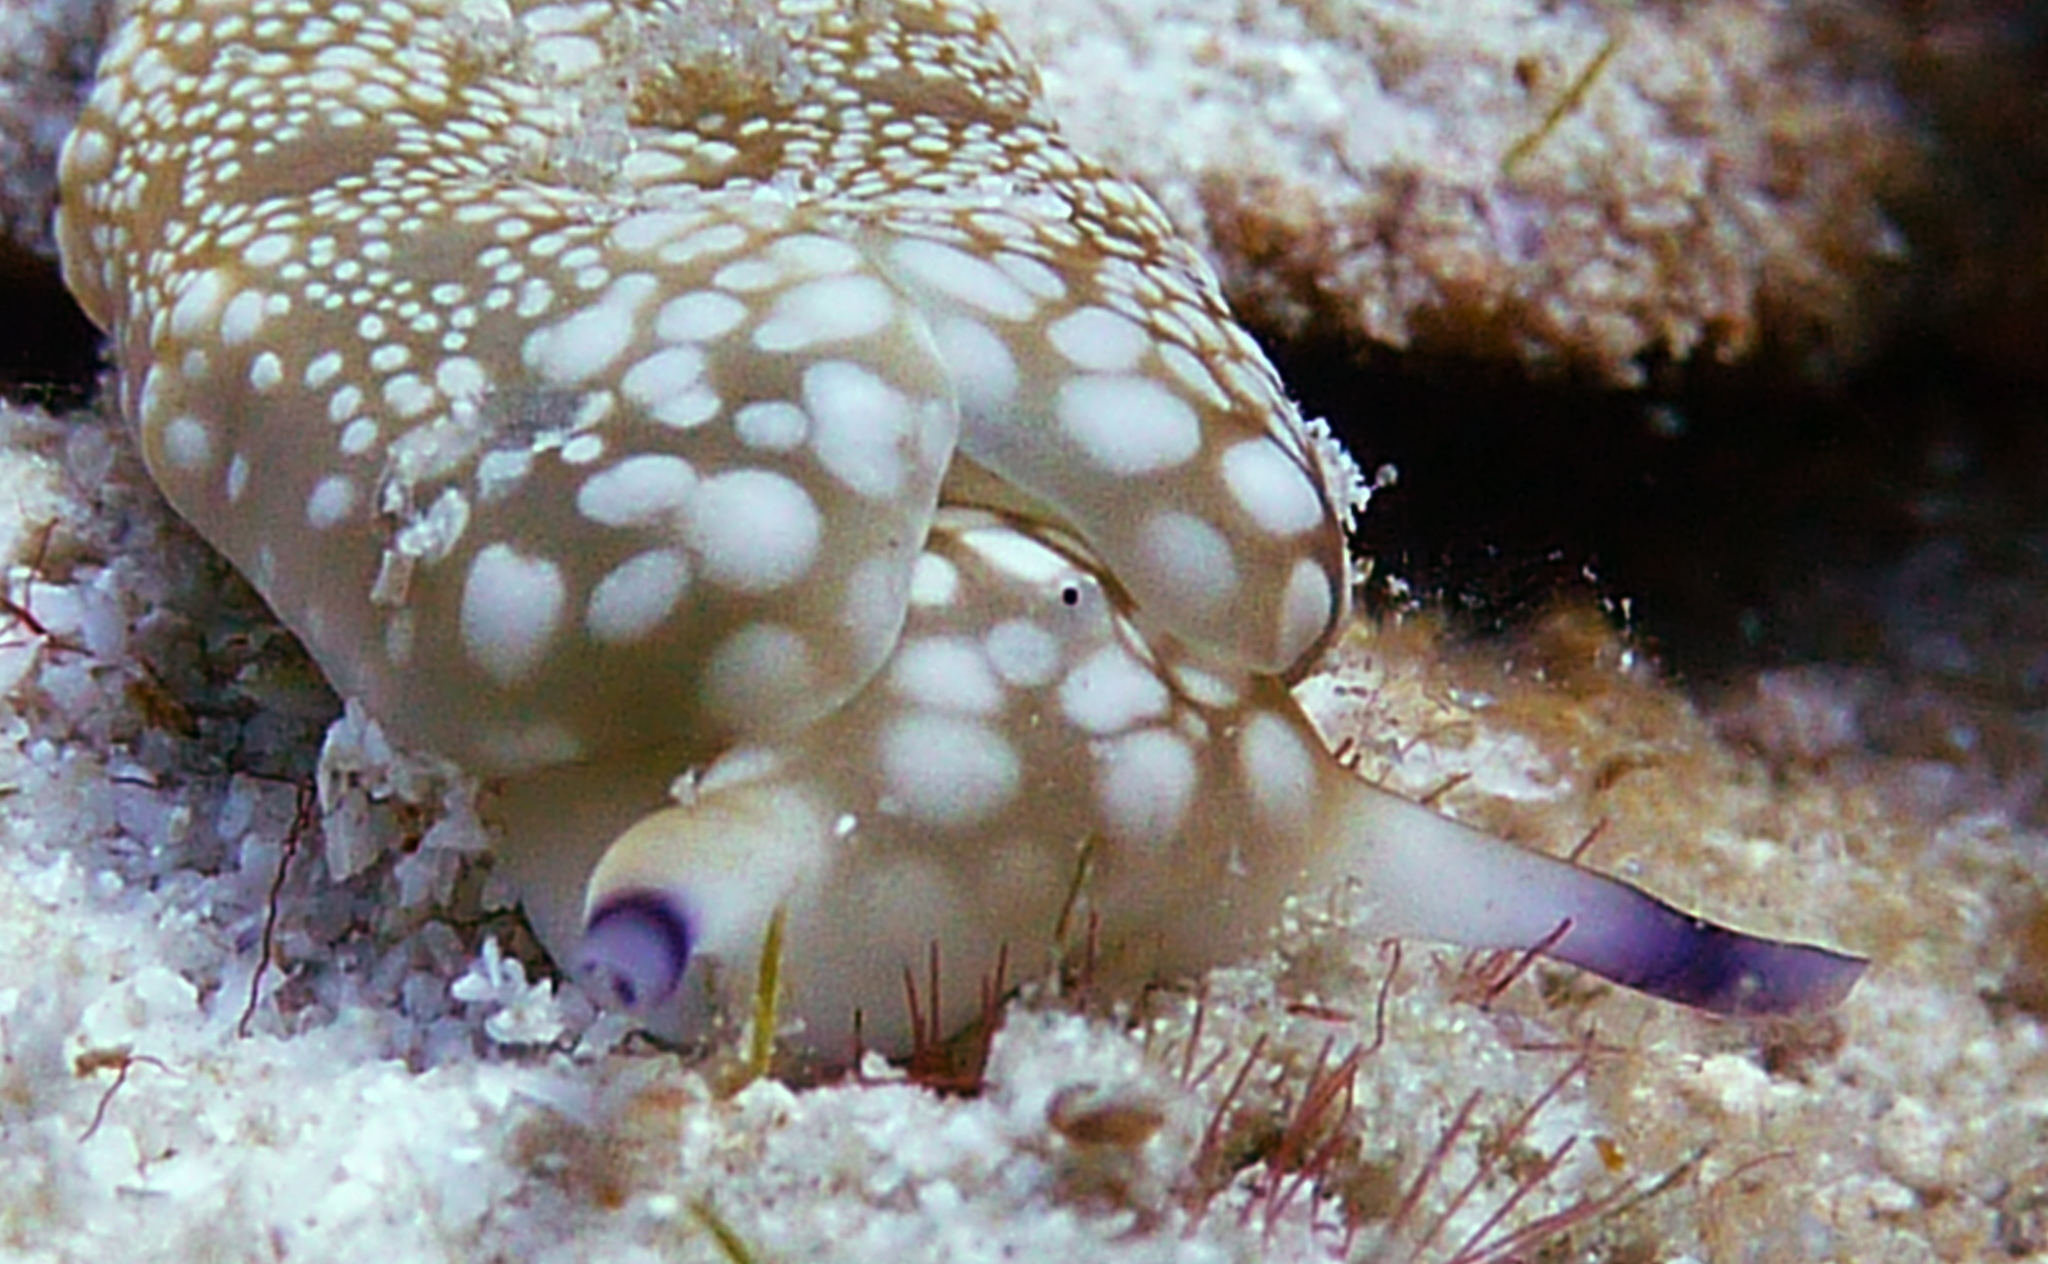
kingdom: Animalia
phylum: Mollusca
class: Gastropoda
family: Plakobranchidae
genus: Plakobranchus
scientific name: Plakobranchus papua
